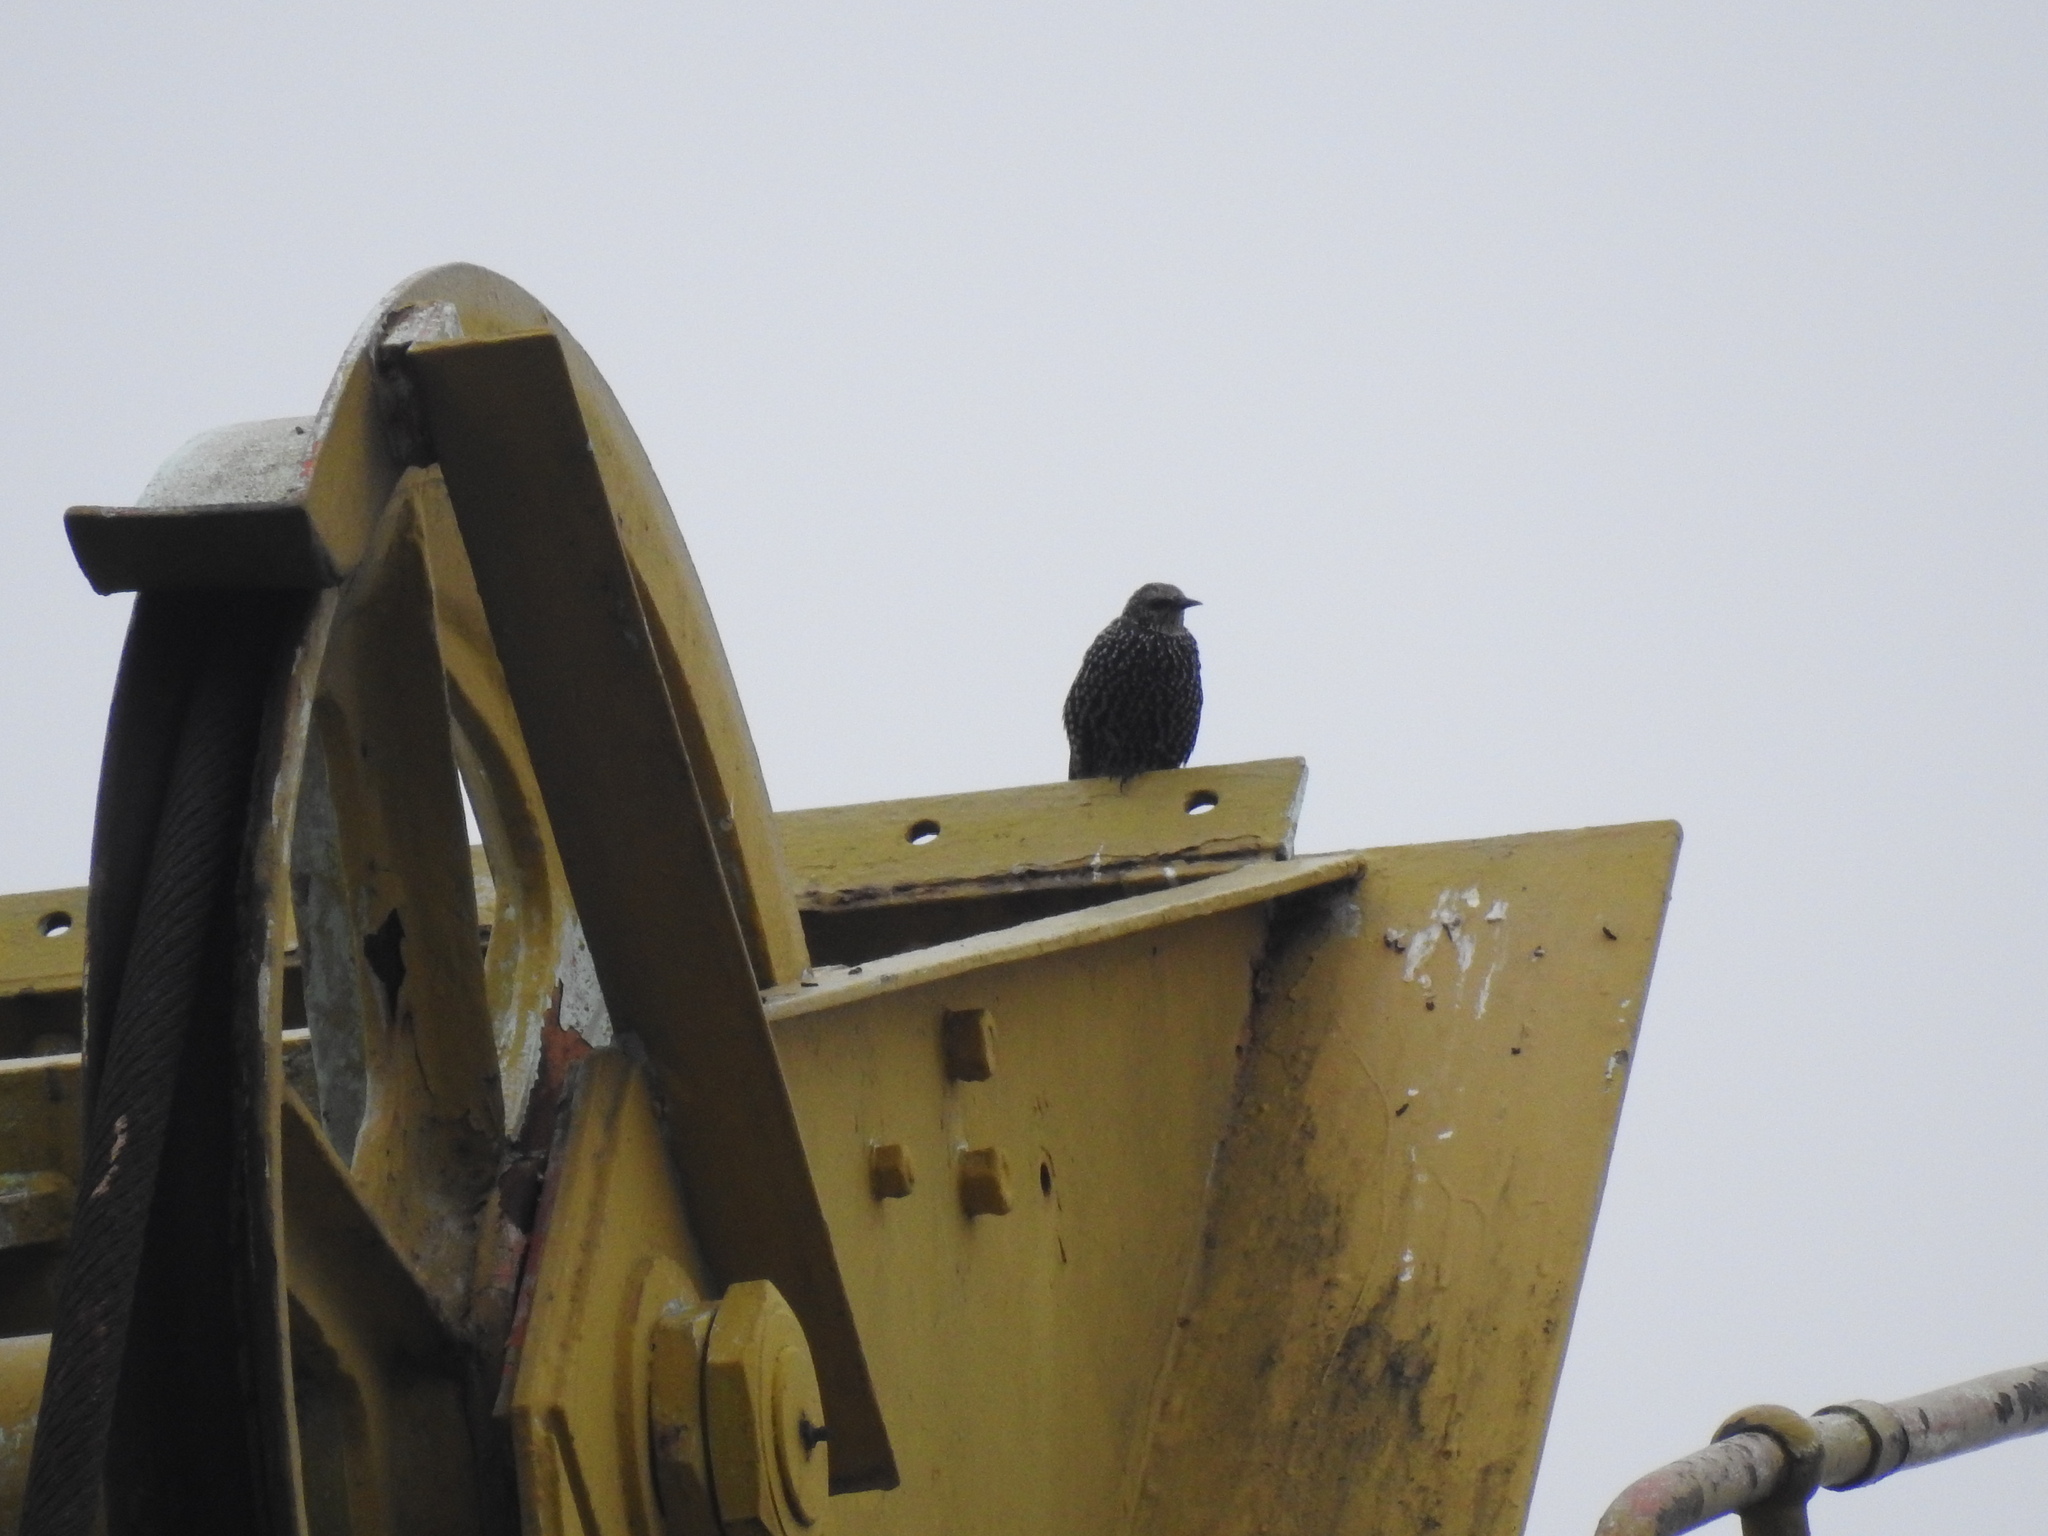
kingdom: Animalia
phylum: Chordata
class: Aves
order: Passeriformes
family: Sturnidae
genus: Sturnus
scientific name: Sturnus vulgaris
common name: Common starling
